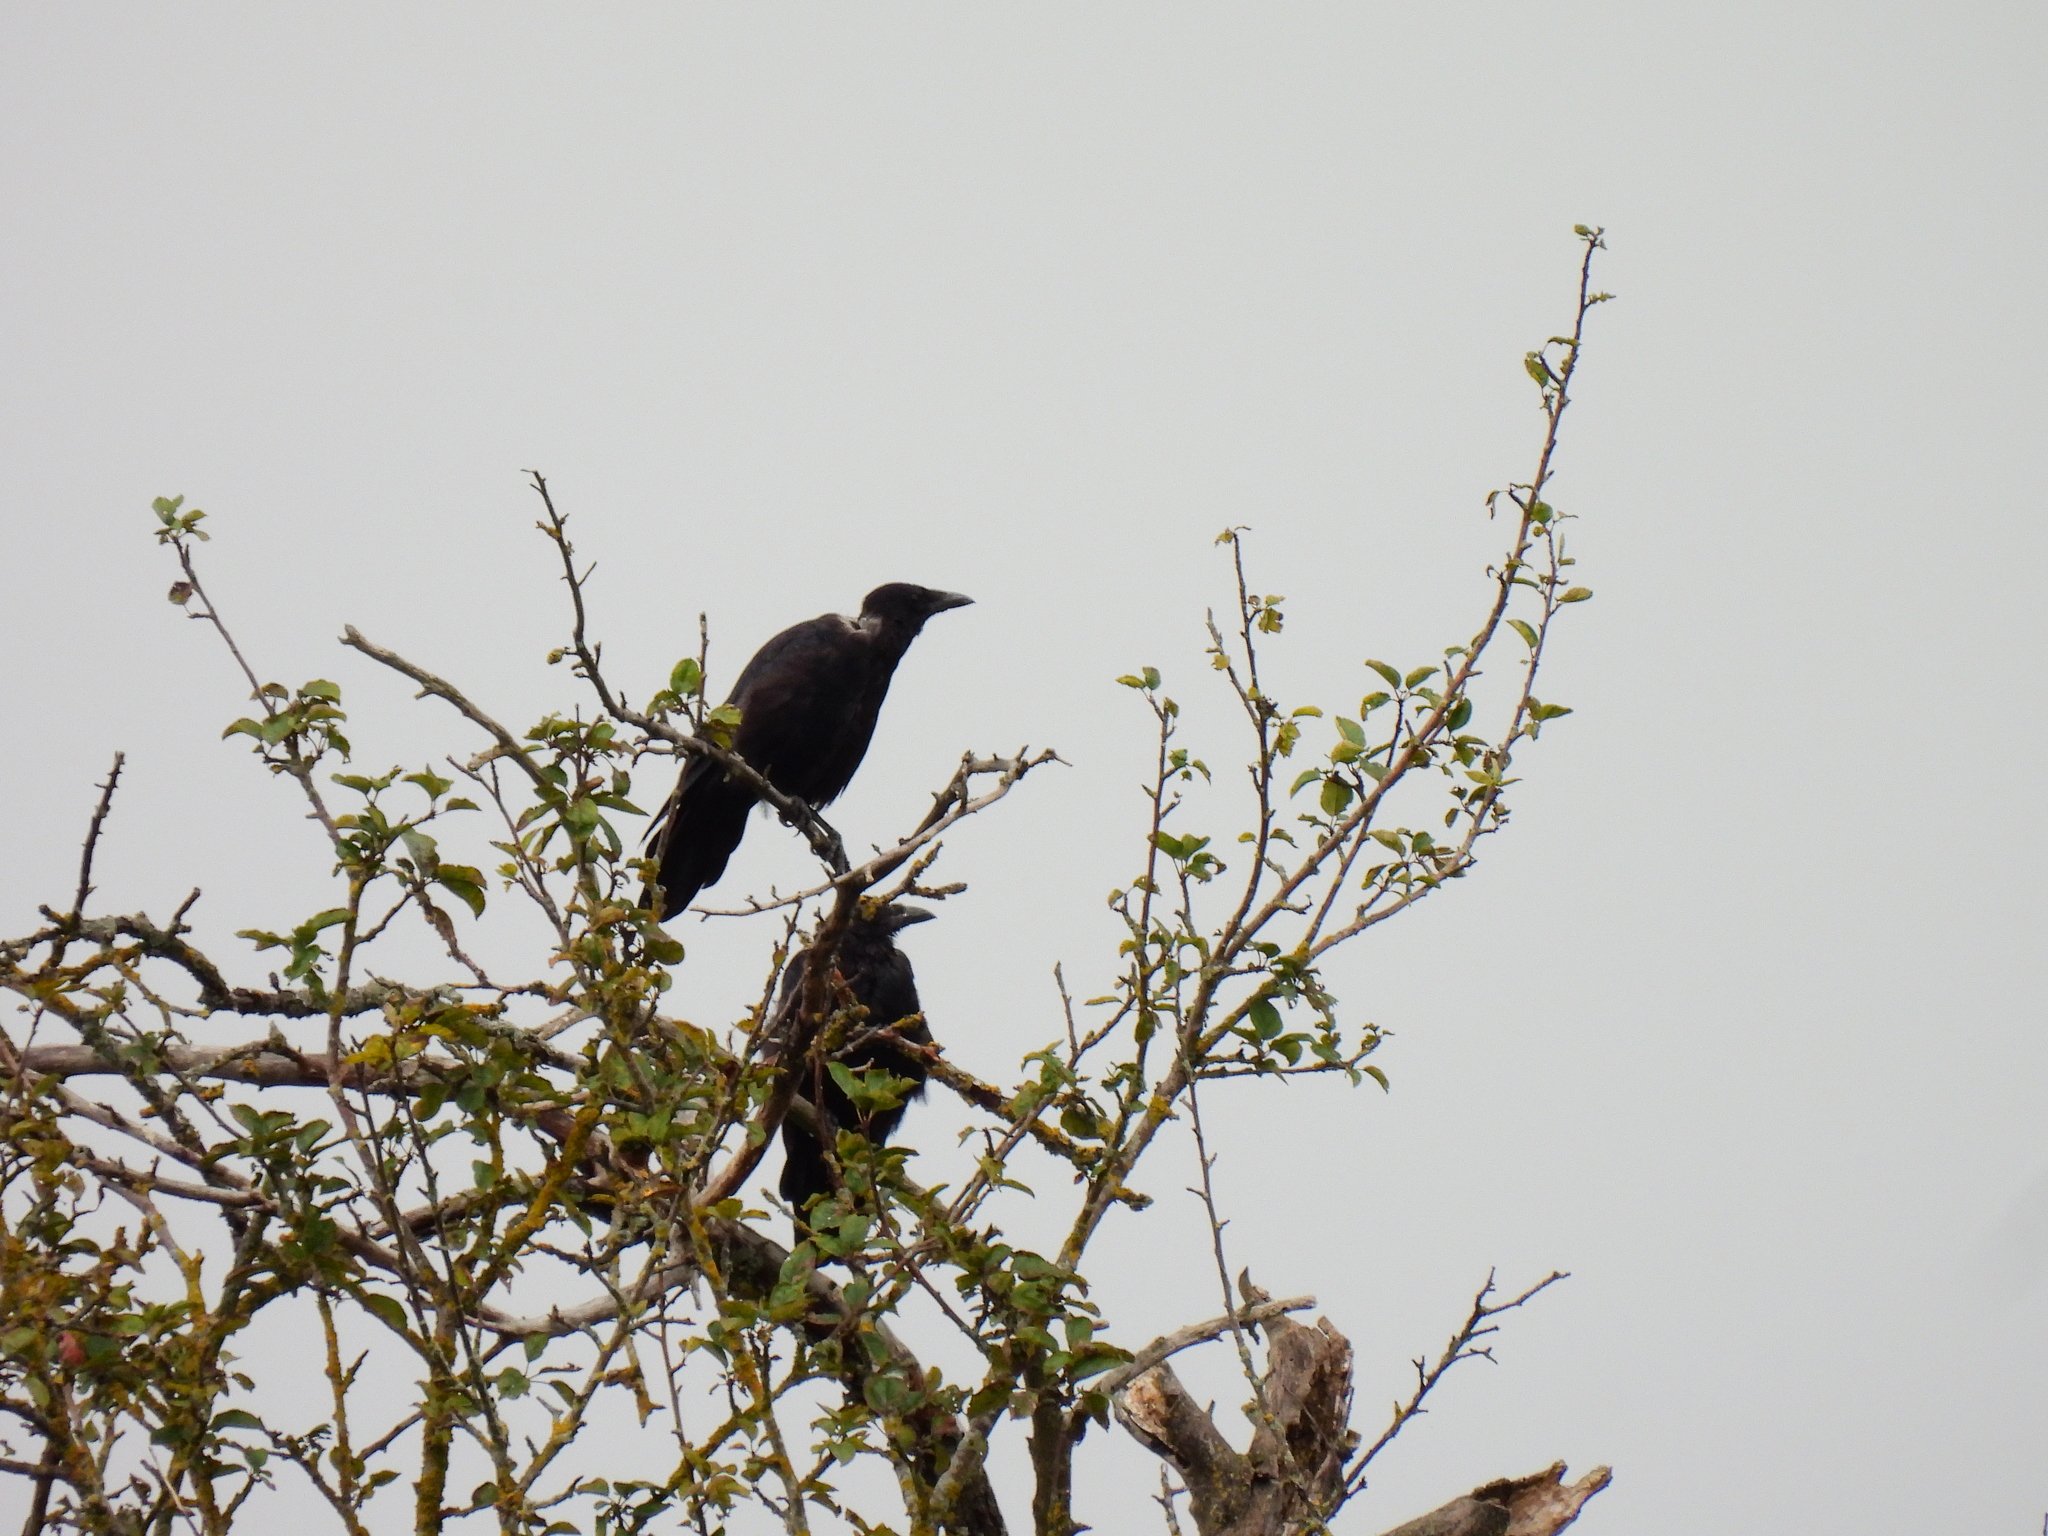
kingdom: Animalia
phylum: Chordata
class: Aves
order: Passeriformes
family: Corvidae
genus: Corvus
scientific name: Corvus corone
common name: Carrion crow
